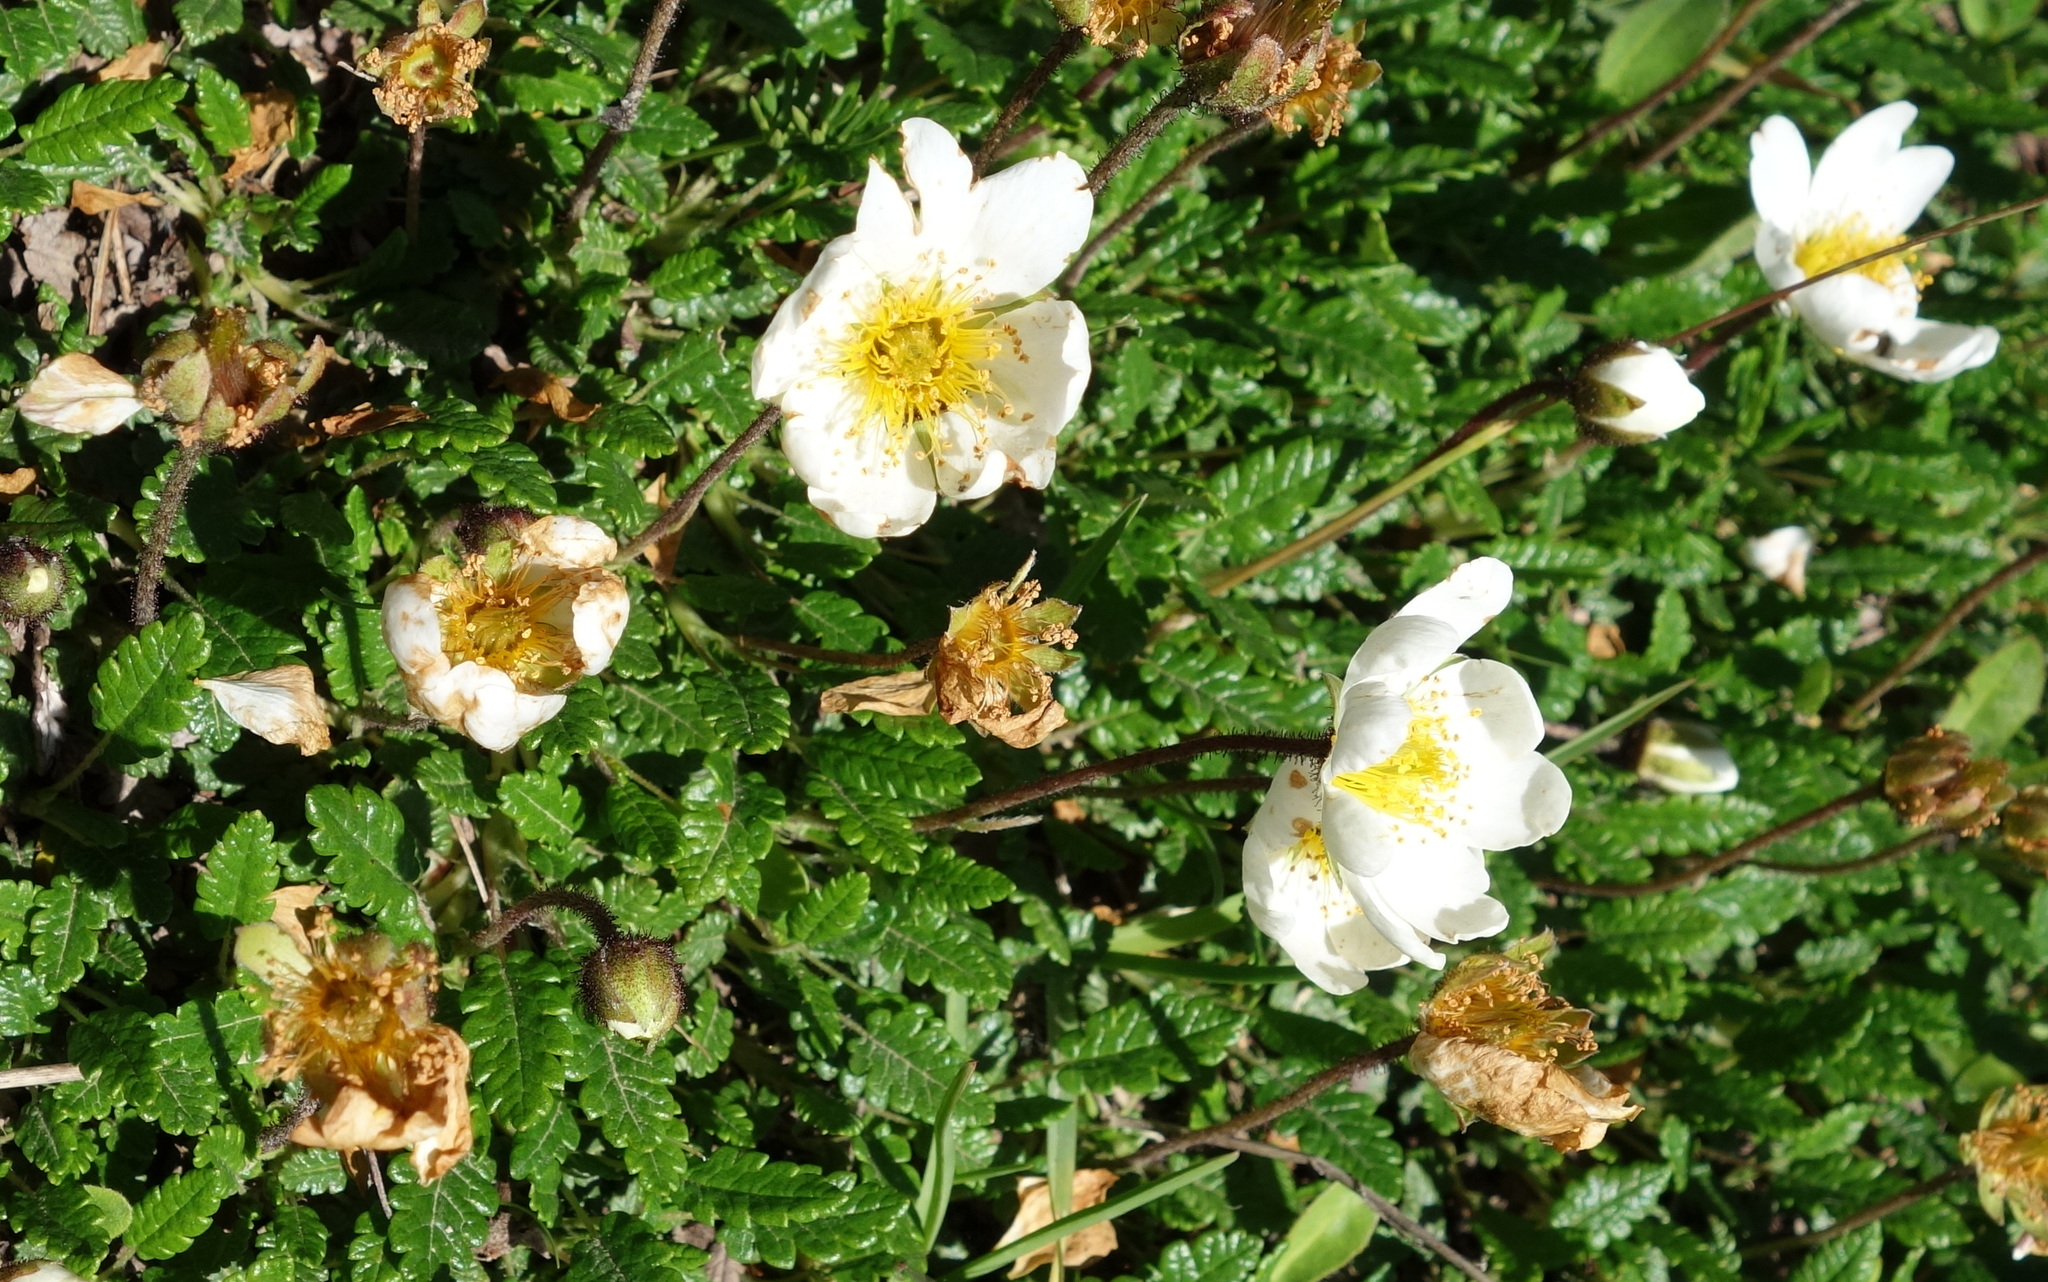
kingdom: Plantae
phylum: Tracheophyta
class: Magnoliopsida
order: Rosales
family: Rosaceae
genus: Dryas
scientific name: Dryas octopetala
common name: Eight-petal mountain-avens
